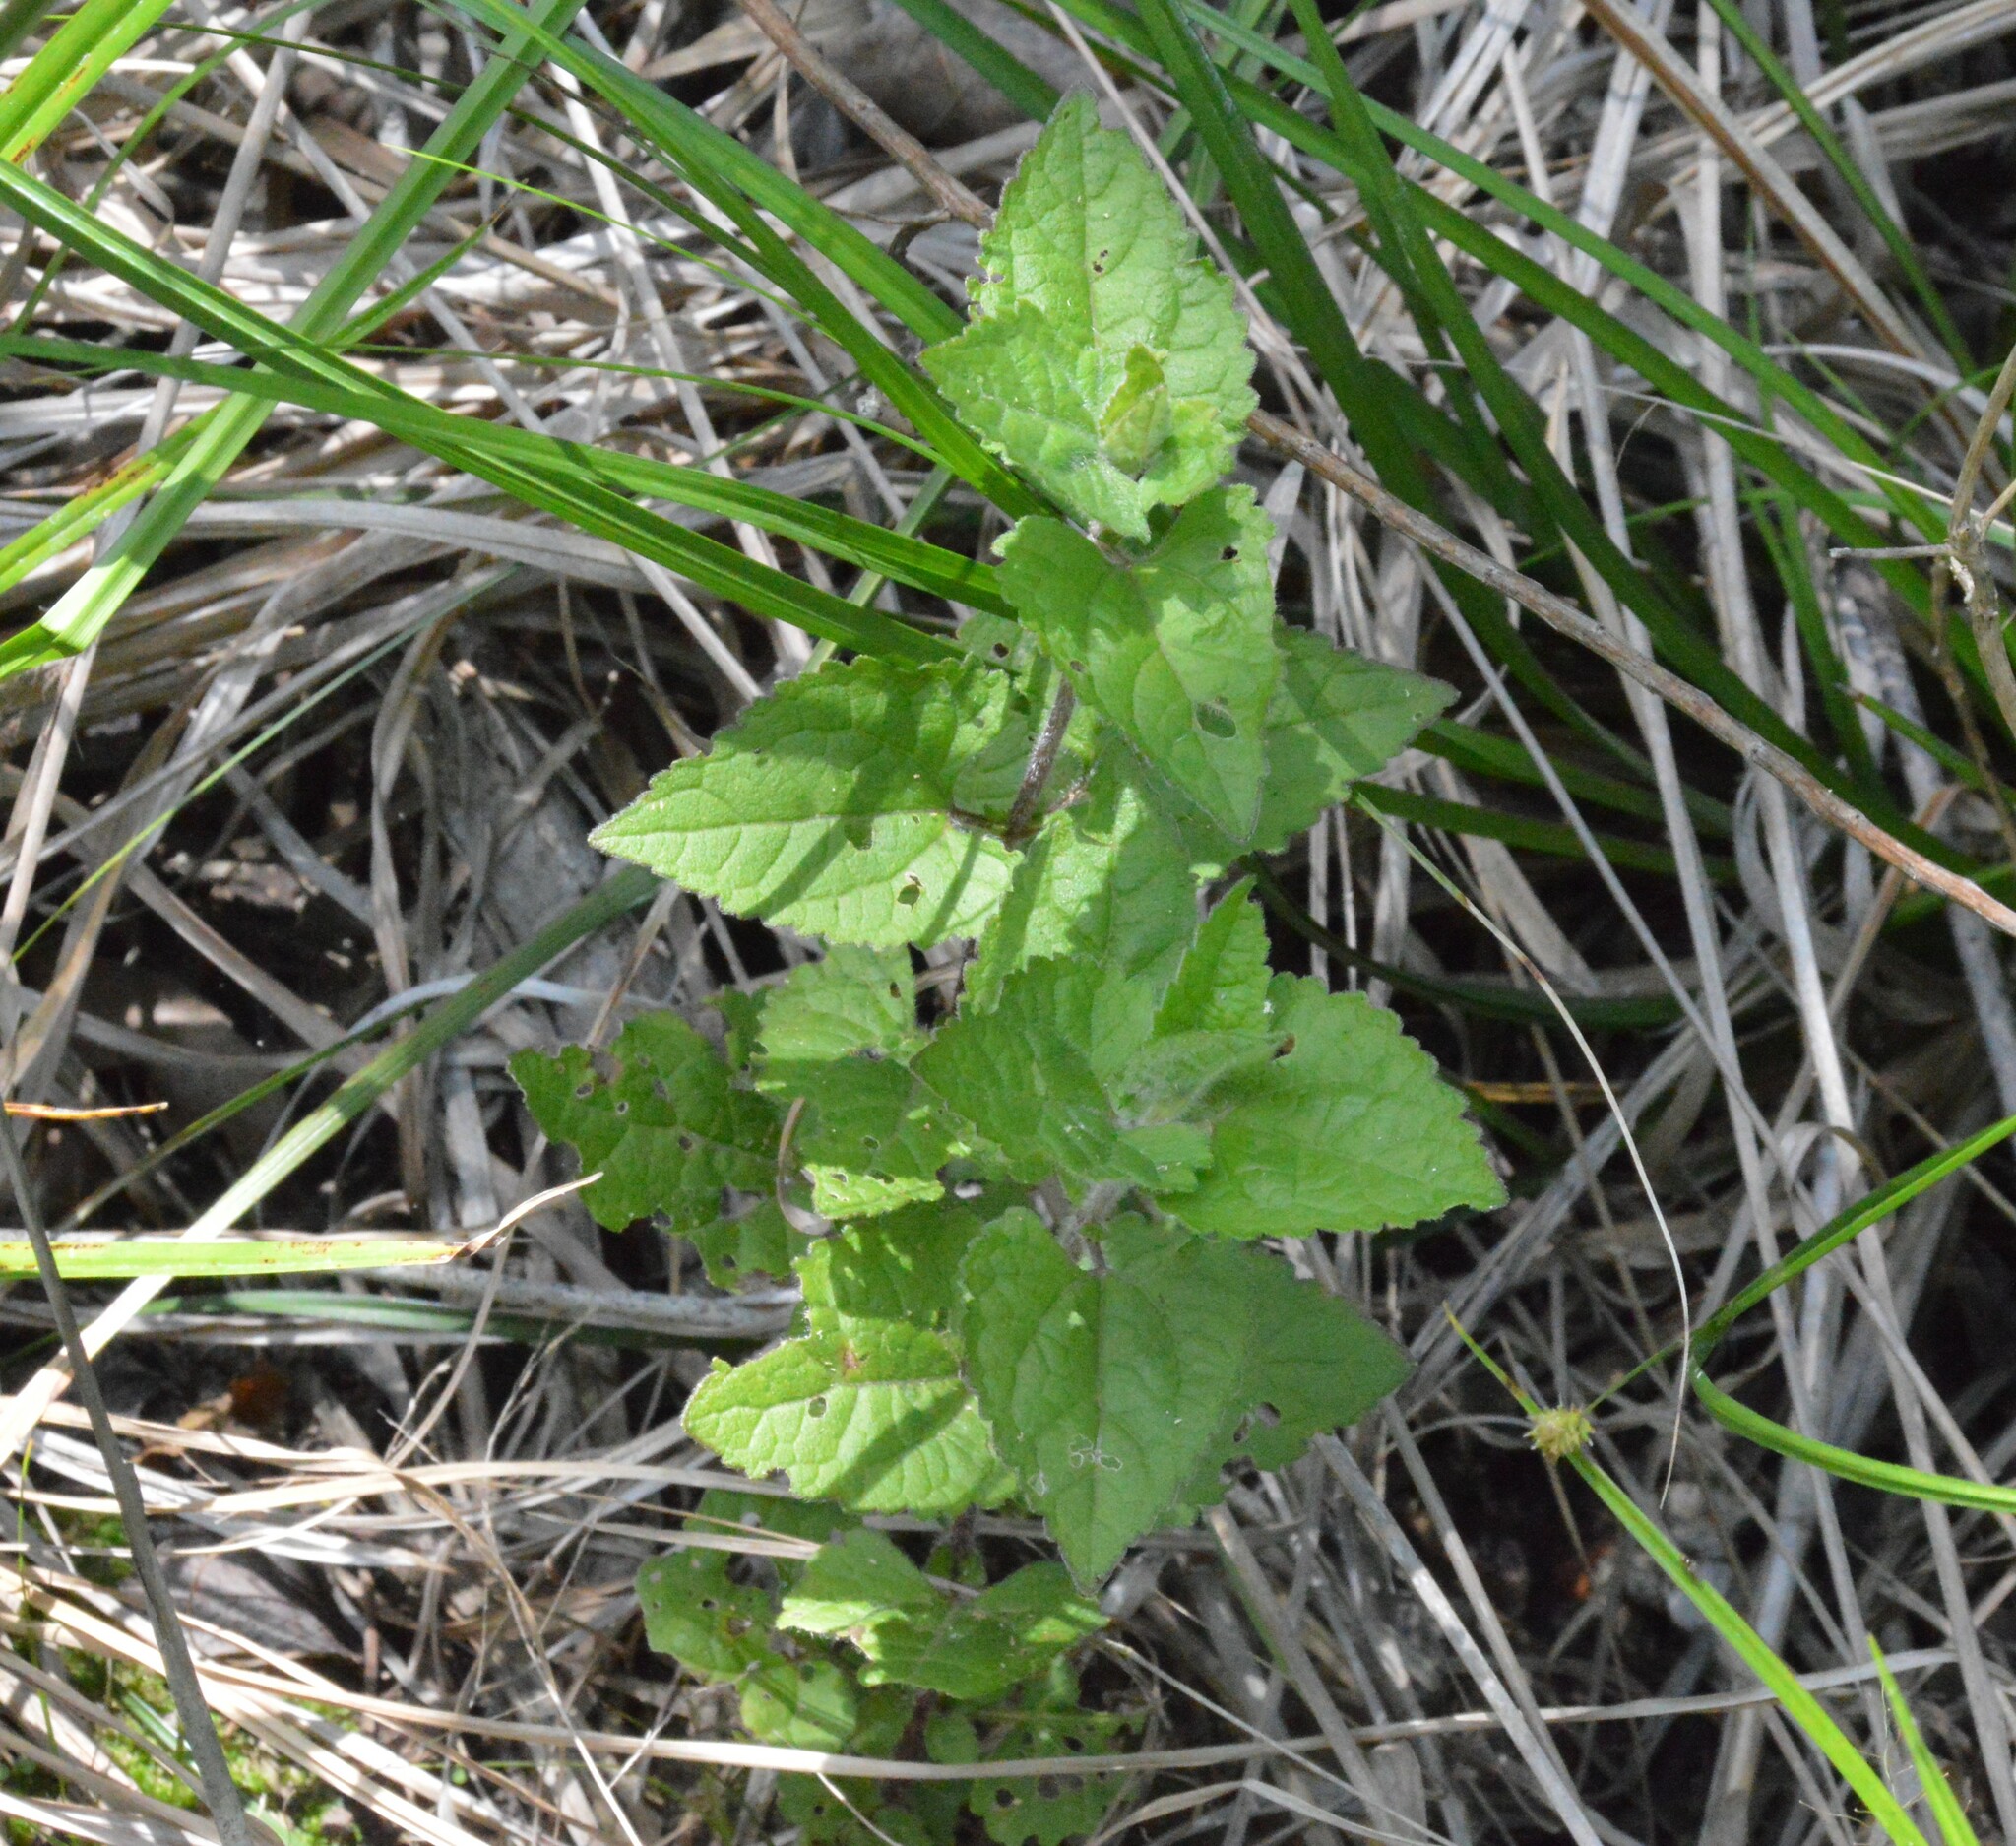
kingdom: Plantae
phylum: Tracheophyta
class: Magnoliopsida
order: Asterales
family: Asteraceae
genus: Conoclinium
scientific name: Conoclinium coelestinum
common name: Blue mistflower
